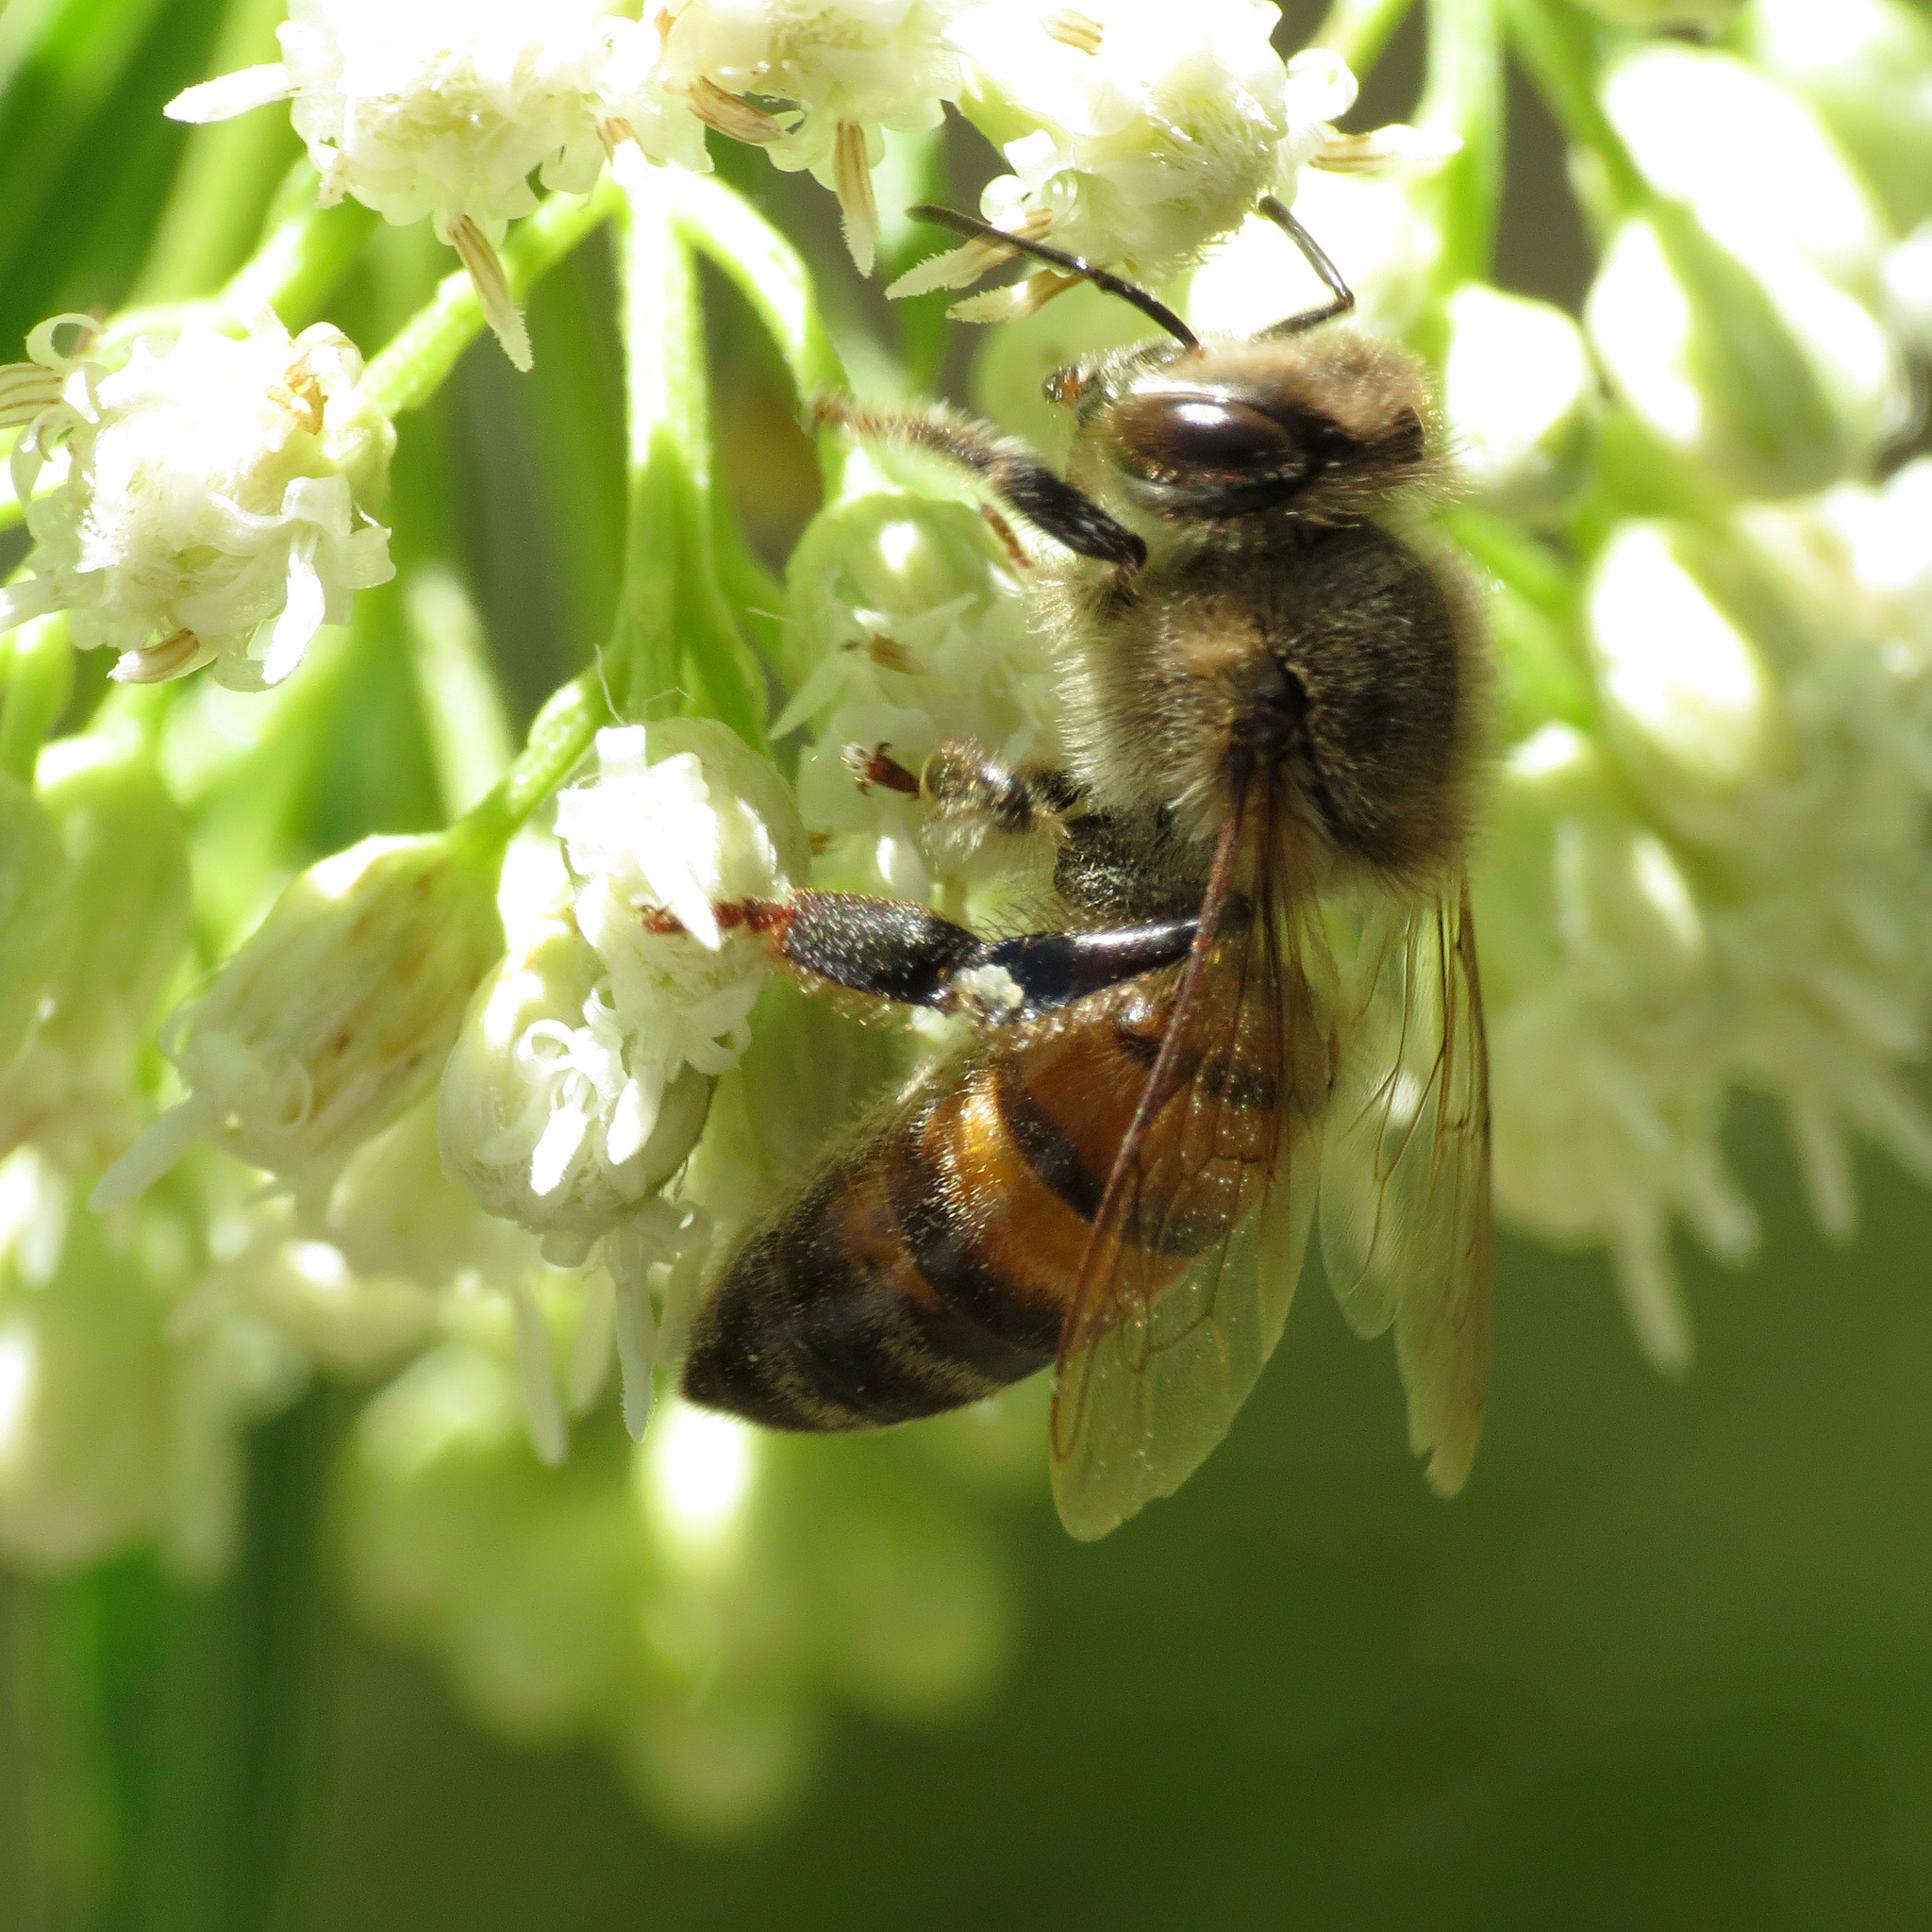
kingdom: Animalia
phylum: Arthropoda
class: Insecta
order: Hymenoptera
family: Apidae
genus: Apis
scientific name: Apis mellifera
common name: Honey bee
